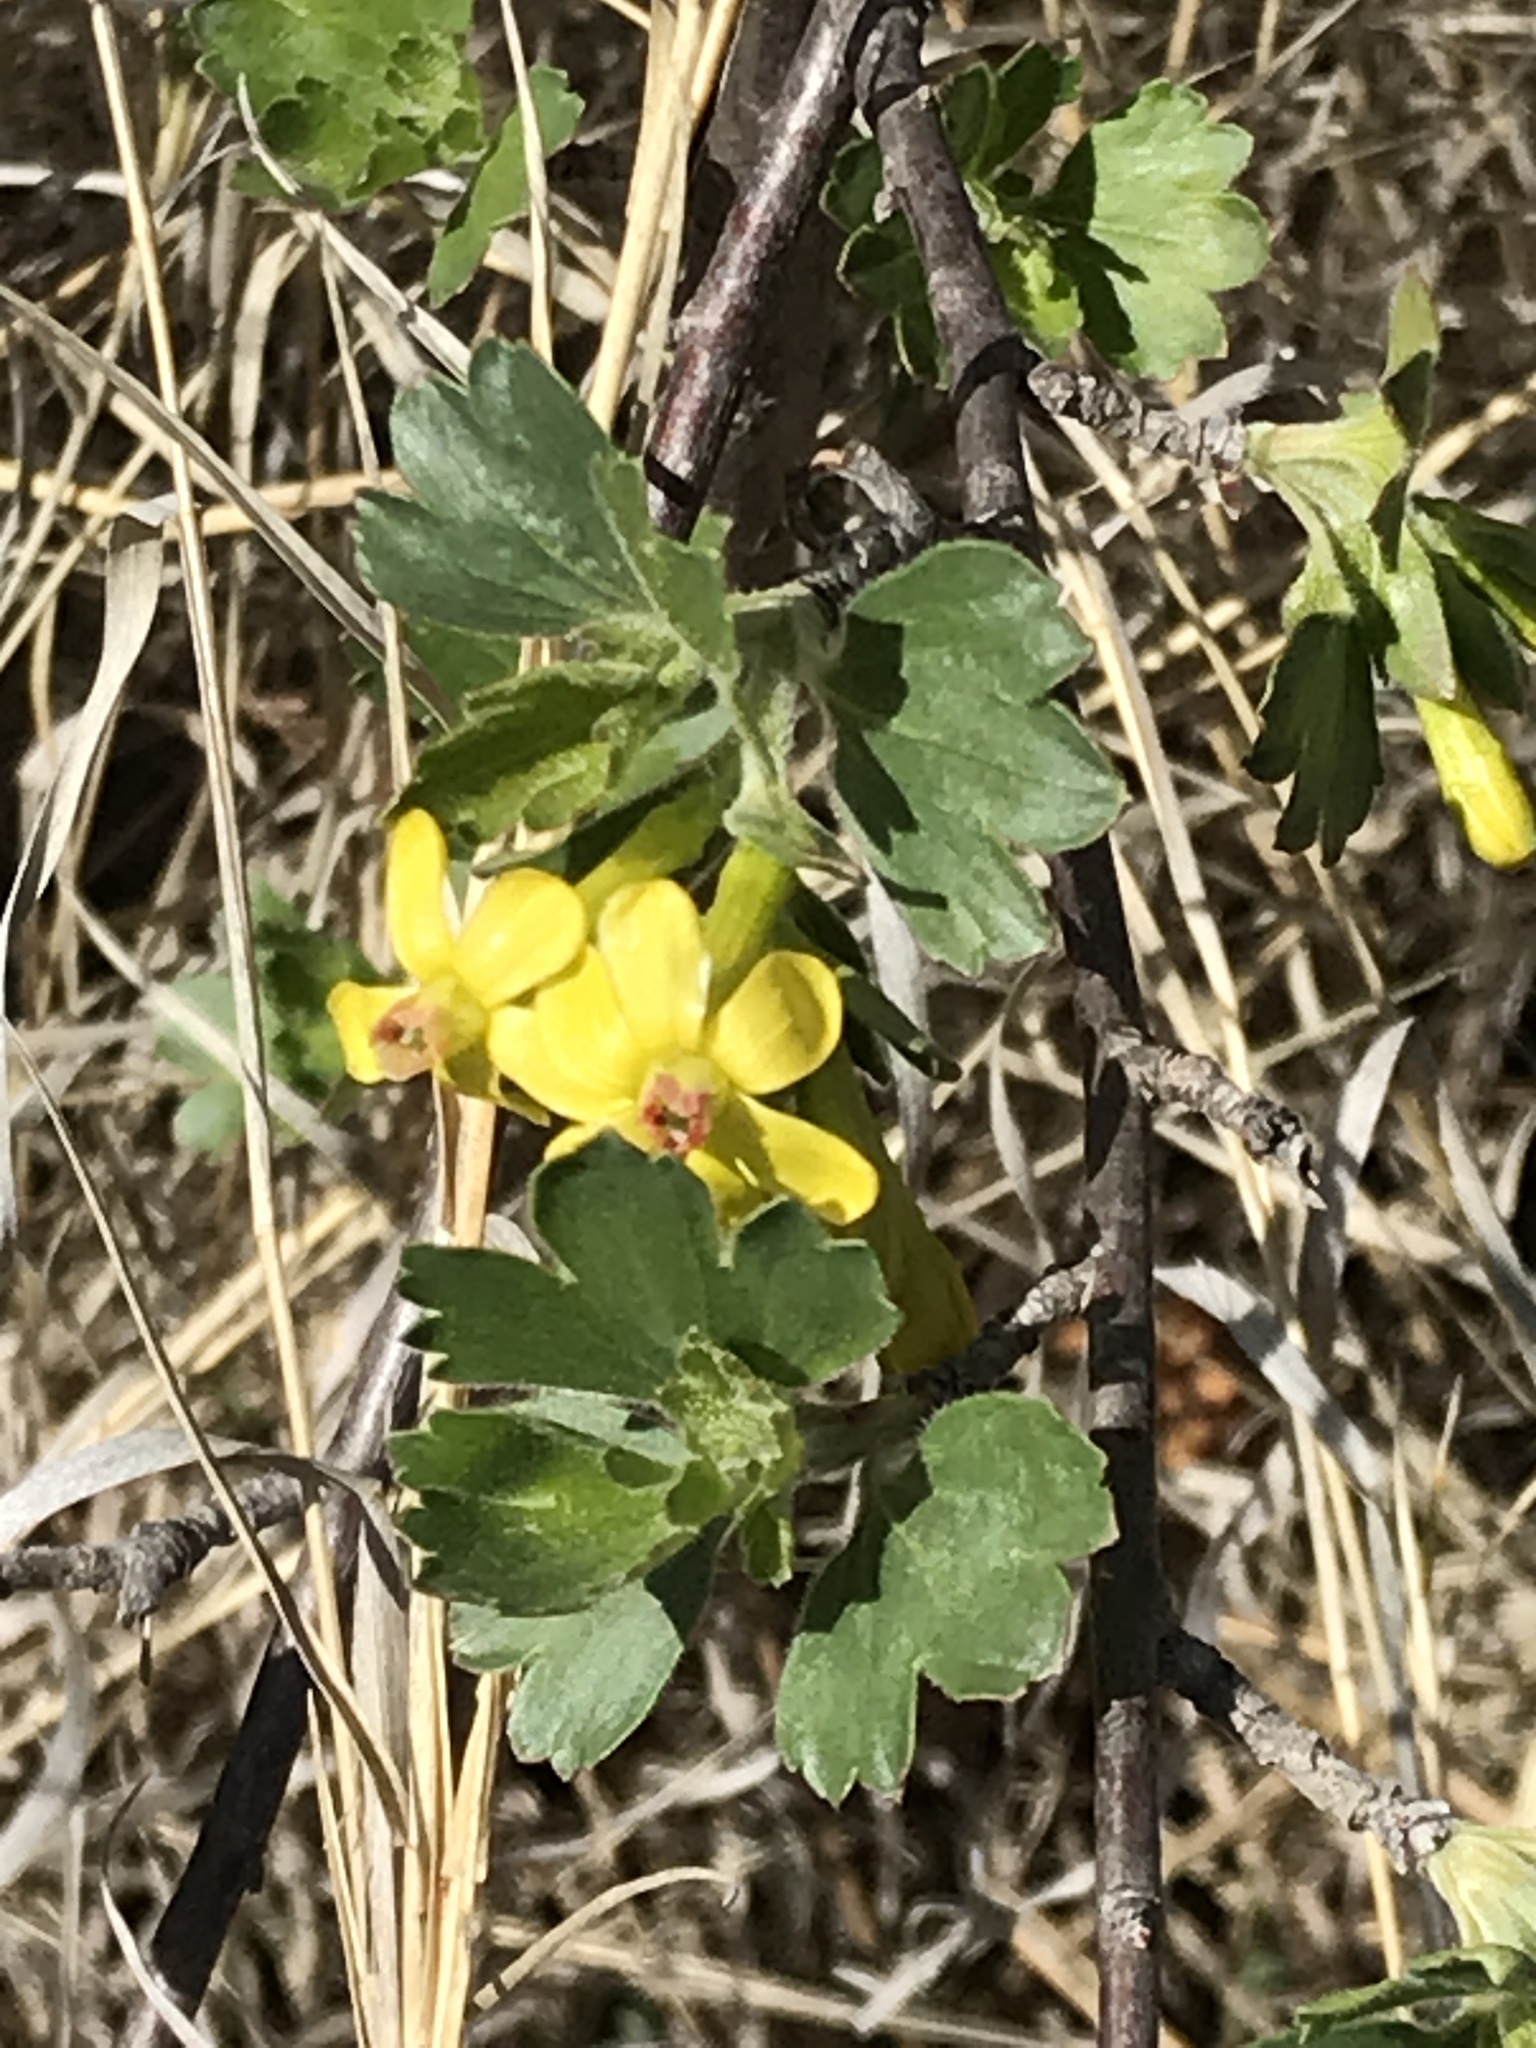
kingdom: Plantae
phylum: Tracheophyta
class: Magnoliopsida
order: Saxifragales
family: Grossulariaceae
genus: Ribes
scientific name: Ribes aureum
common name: Golden currant
